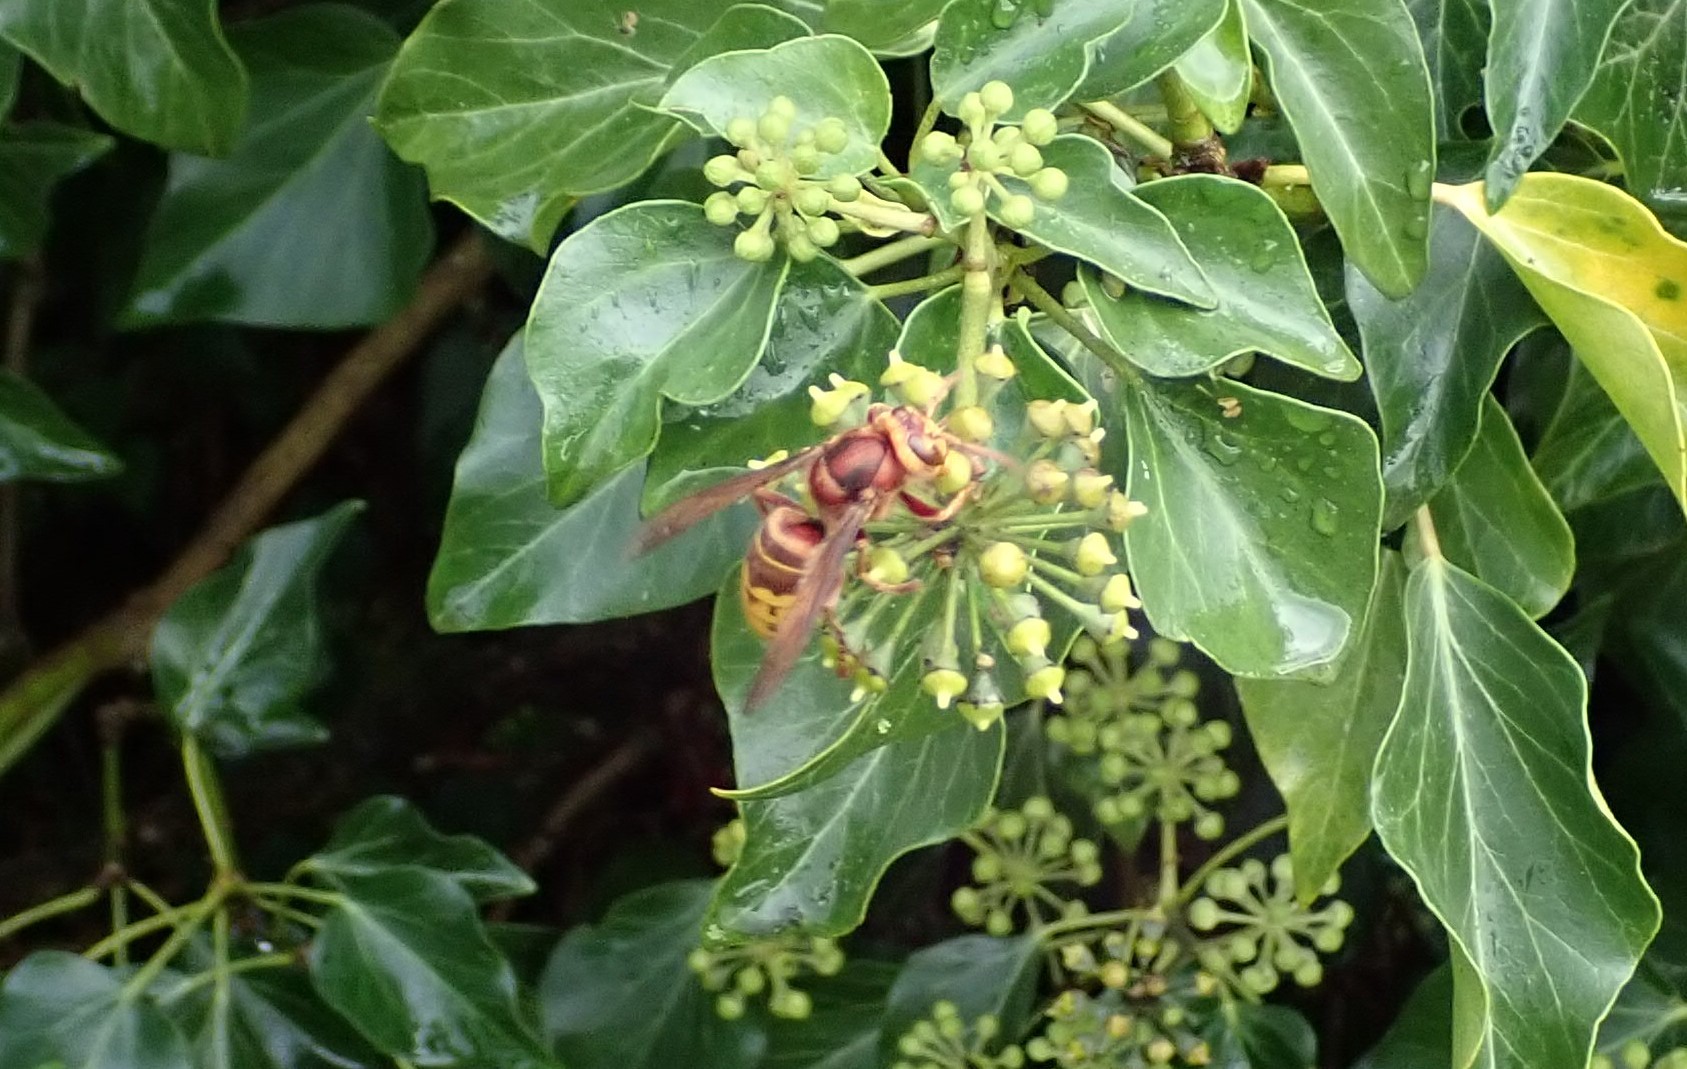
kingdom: Animalia
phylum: Arthropoda
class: Insecta
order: Hymenoptera
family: Vespidae
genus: Vespa
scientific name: Vespa crabro
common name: Hornet
